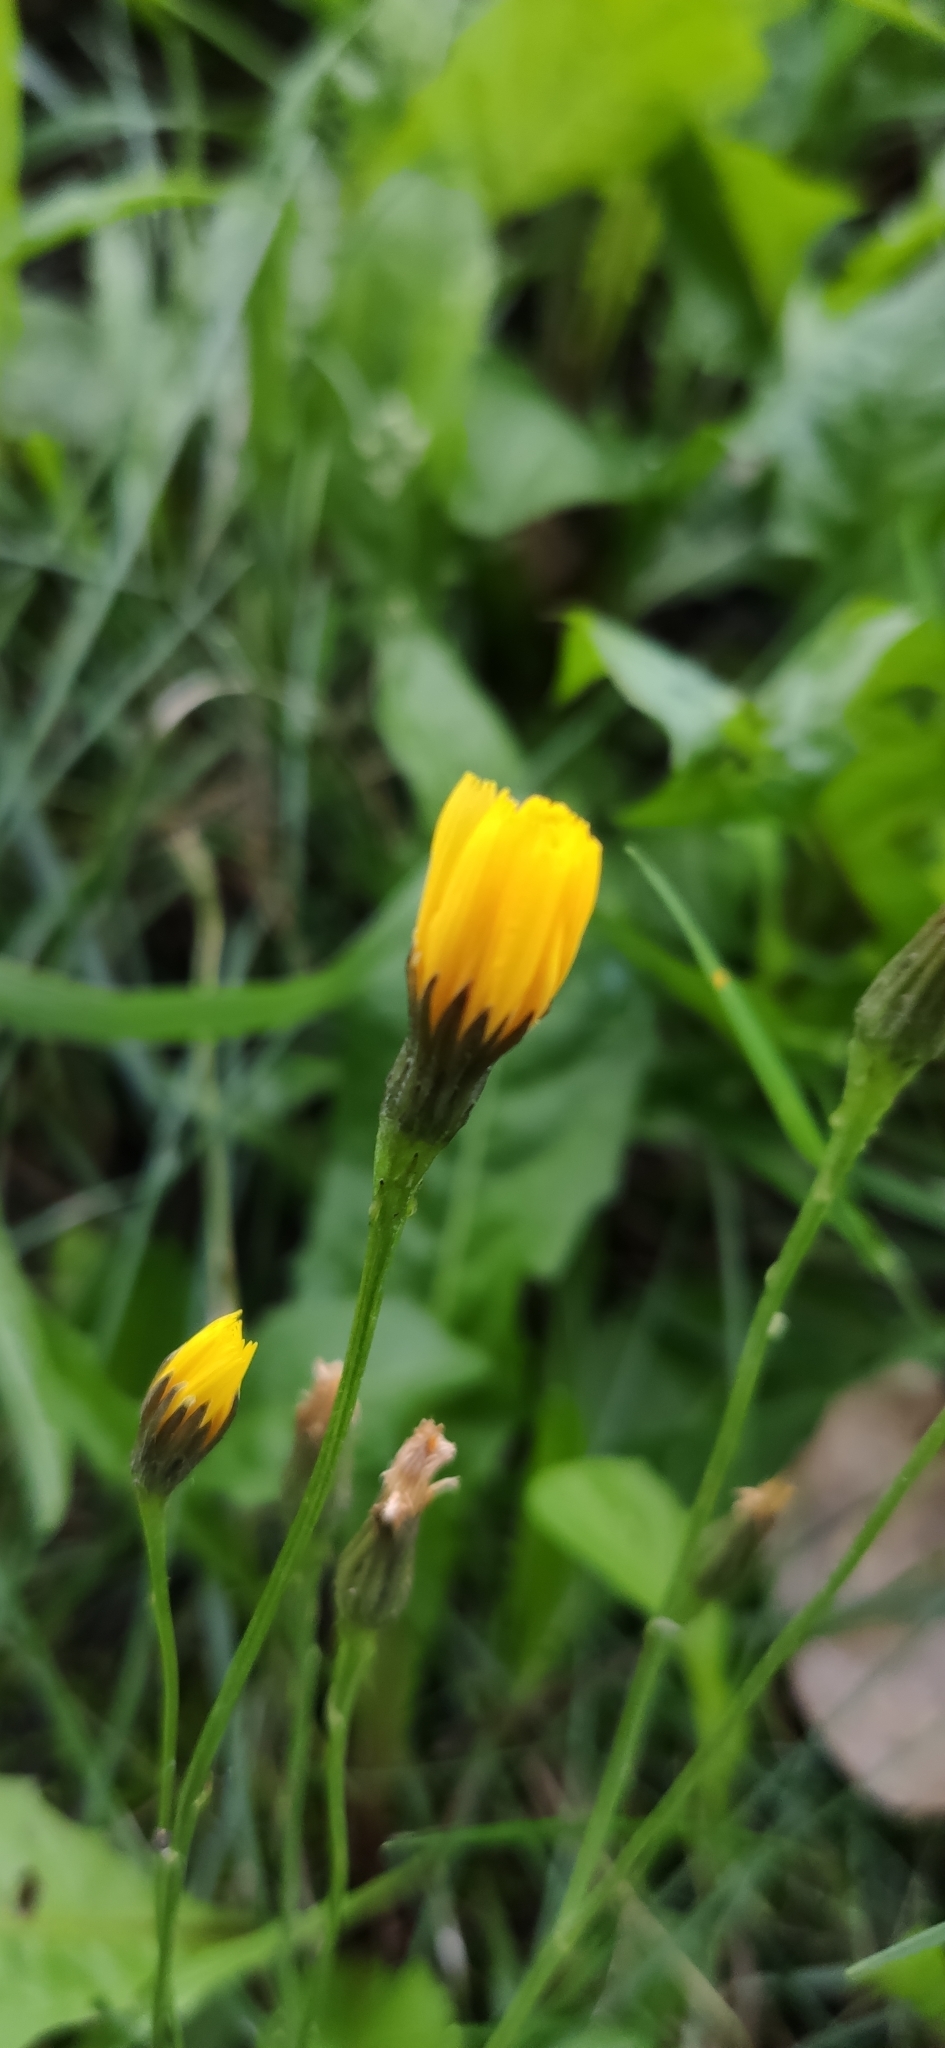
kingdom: Plantae
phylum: Tracheophyta
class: Magnoliopsida
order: Asterales
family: Asteraceae
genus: Scorzoneroides
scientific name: Scorzoneroides autumnalis
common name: Autumn hawkbit
